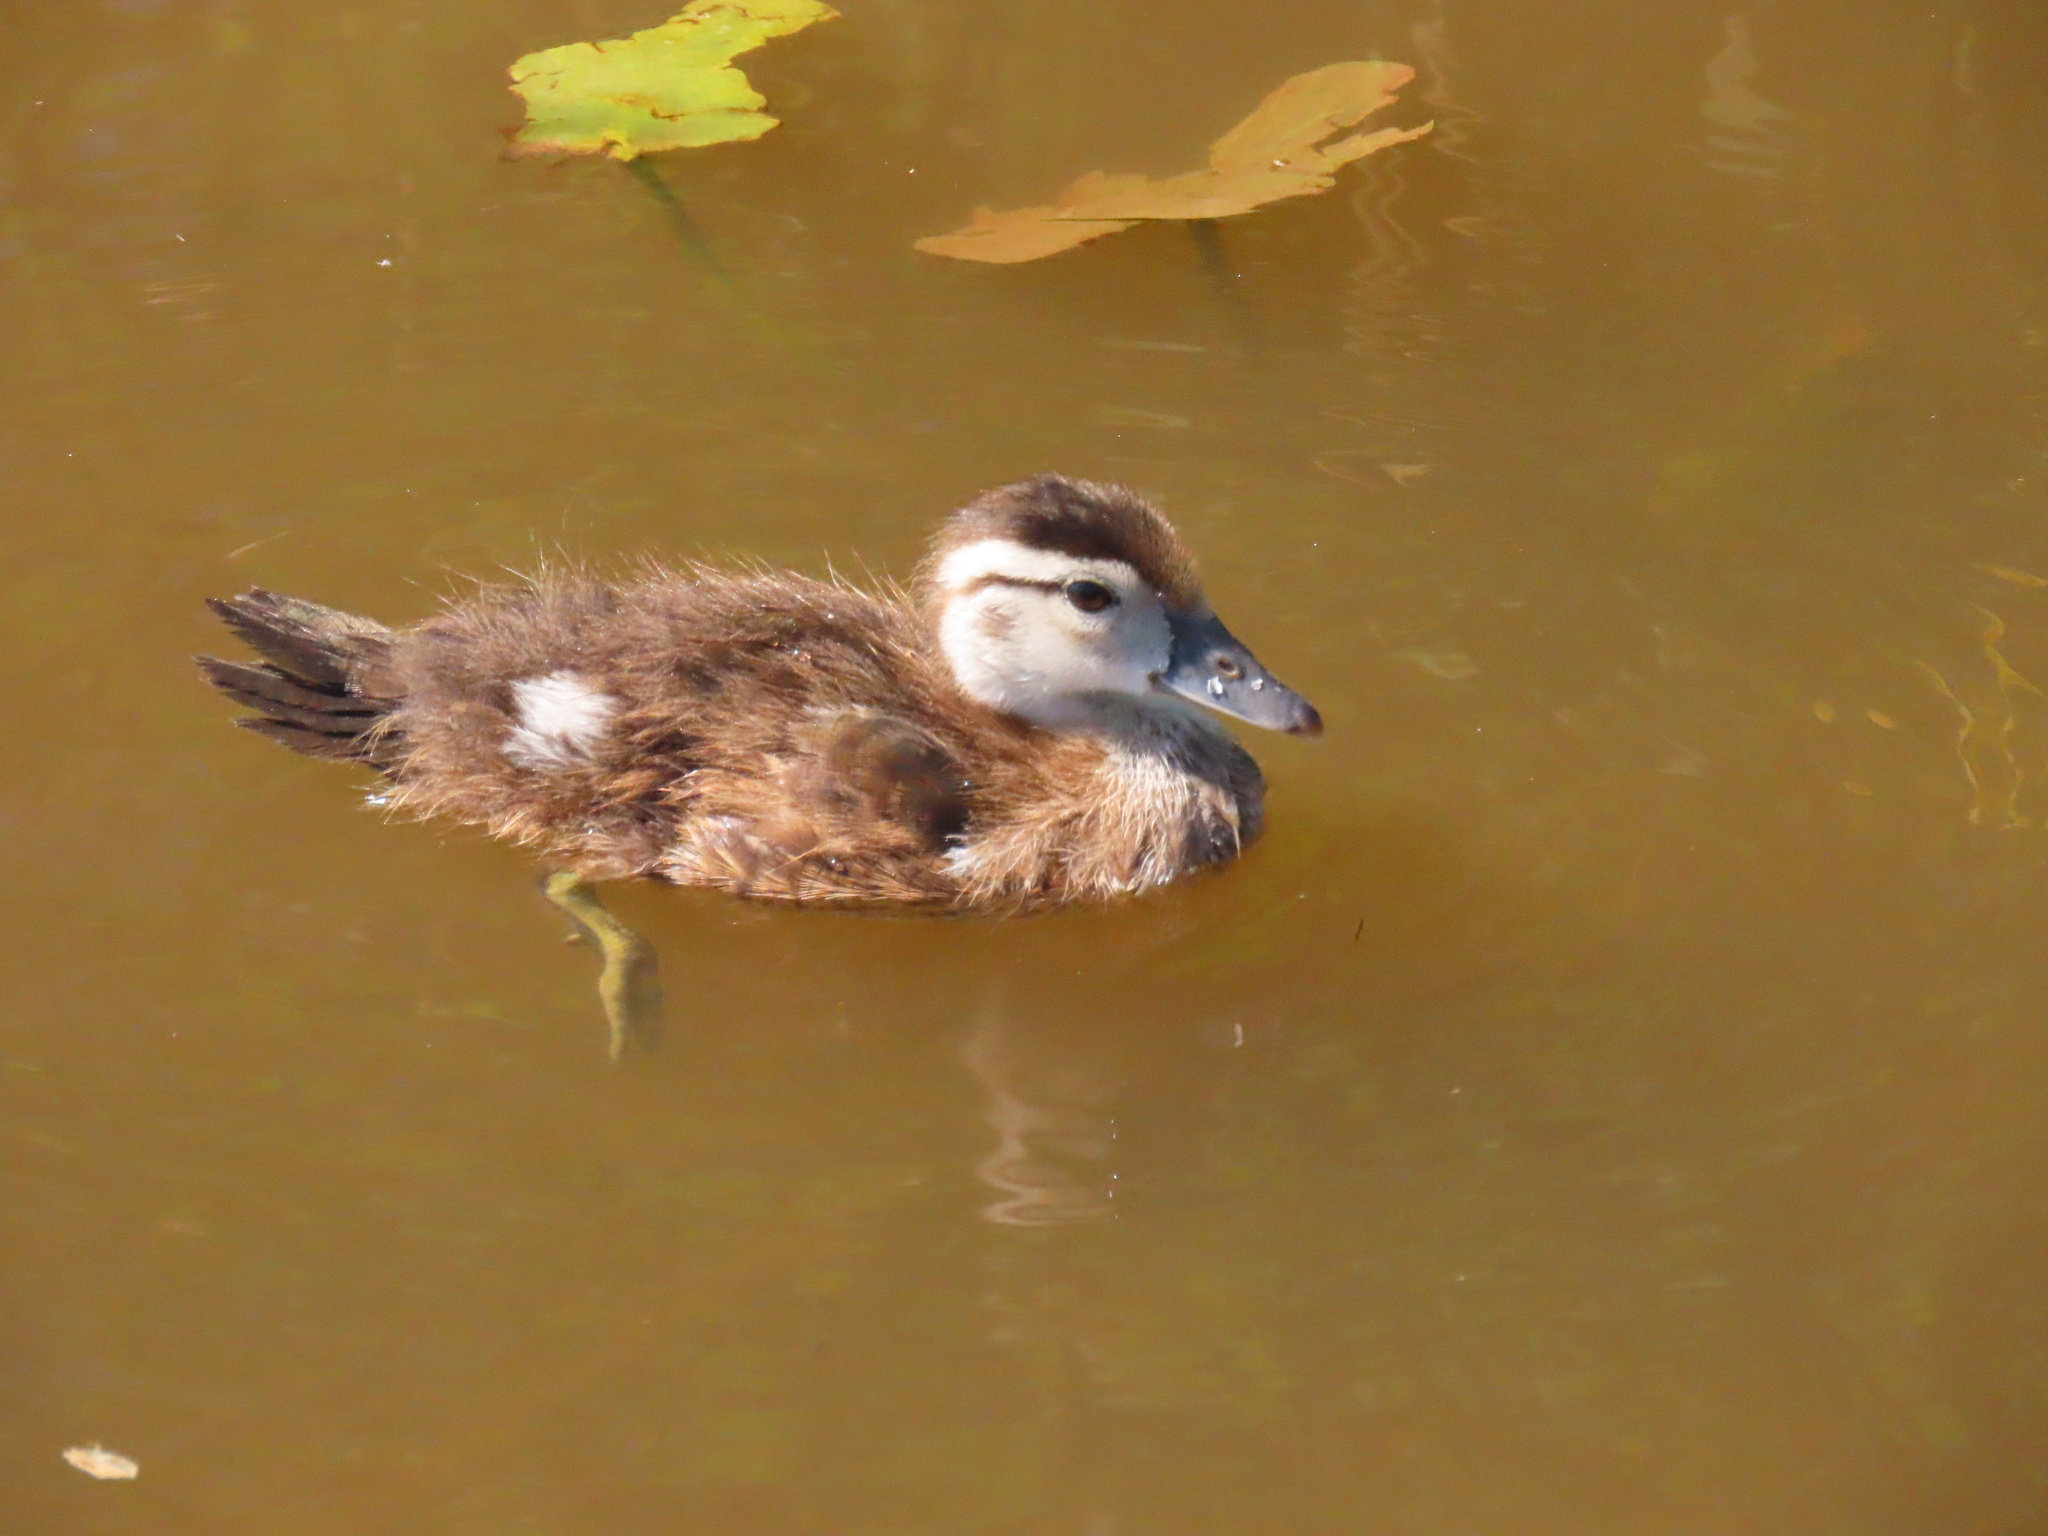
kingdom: Animalia
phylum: Chordata
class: Aves
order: Anseriformes
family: Anatidae
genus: Aix
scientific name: Aix sponsa
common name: Wood duck
